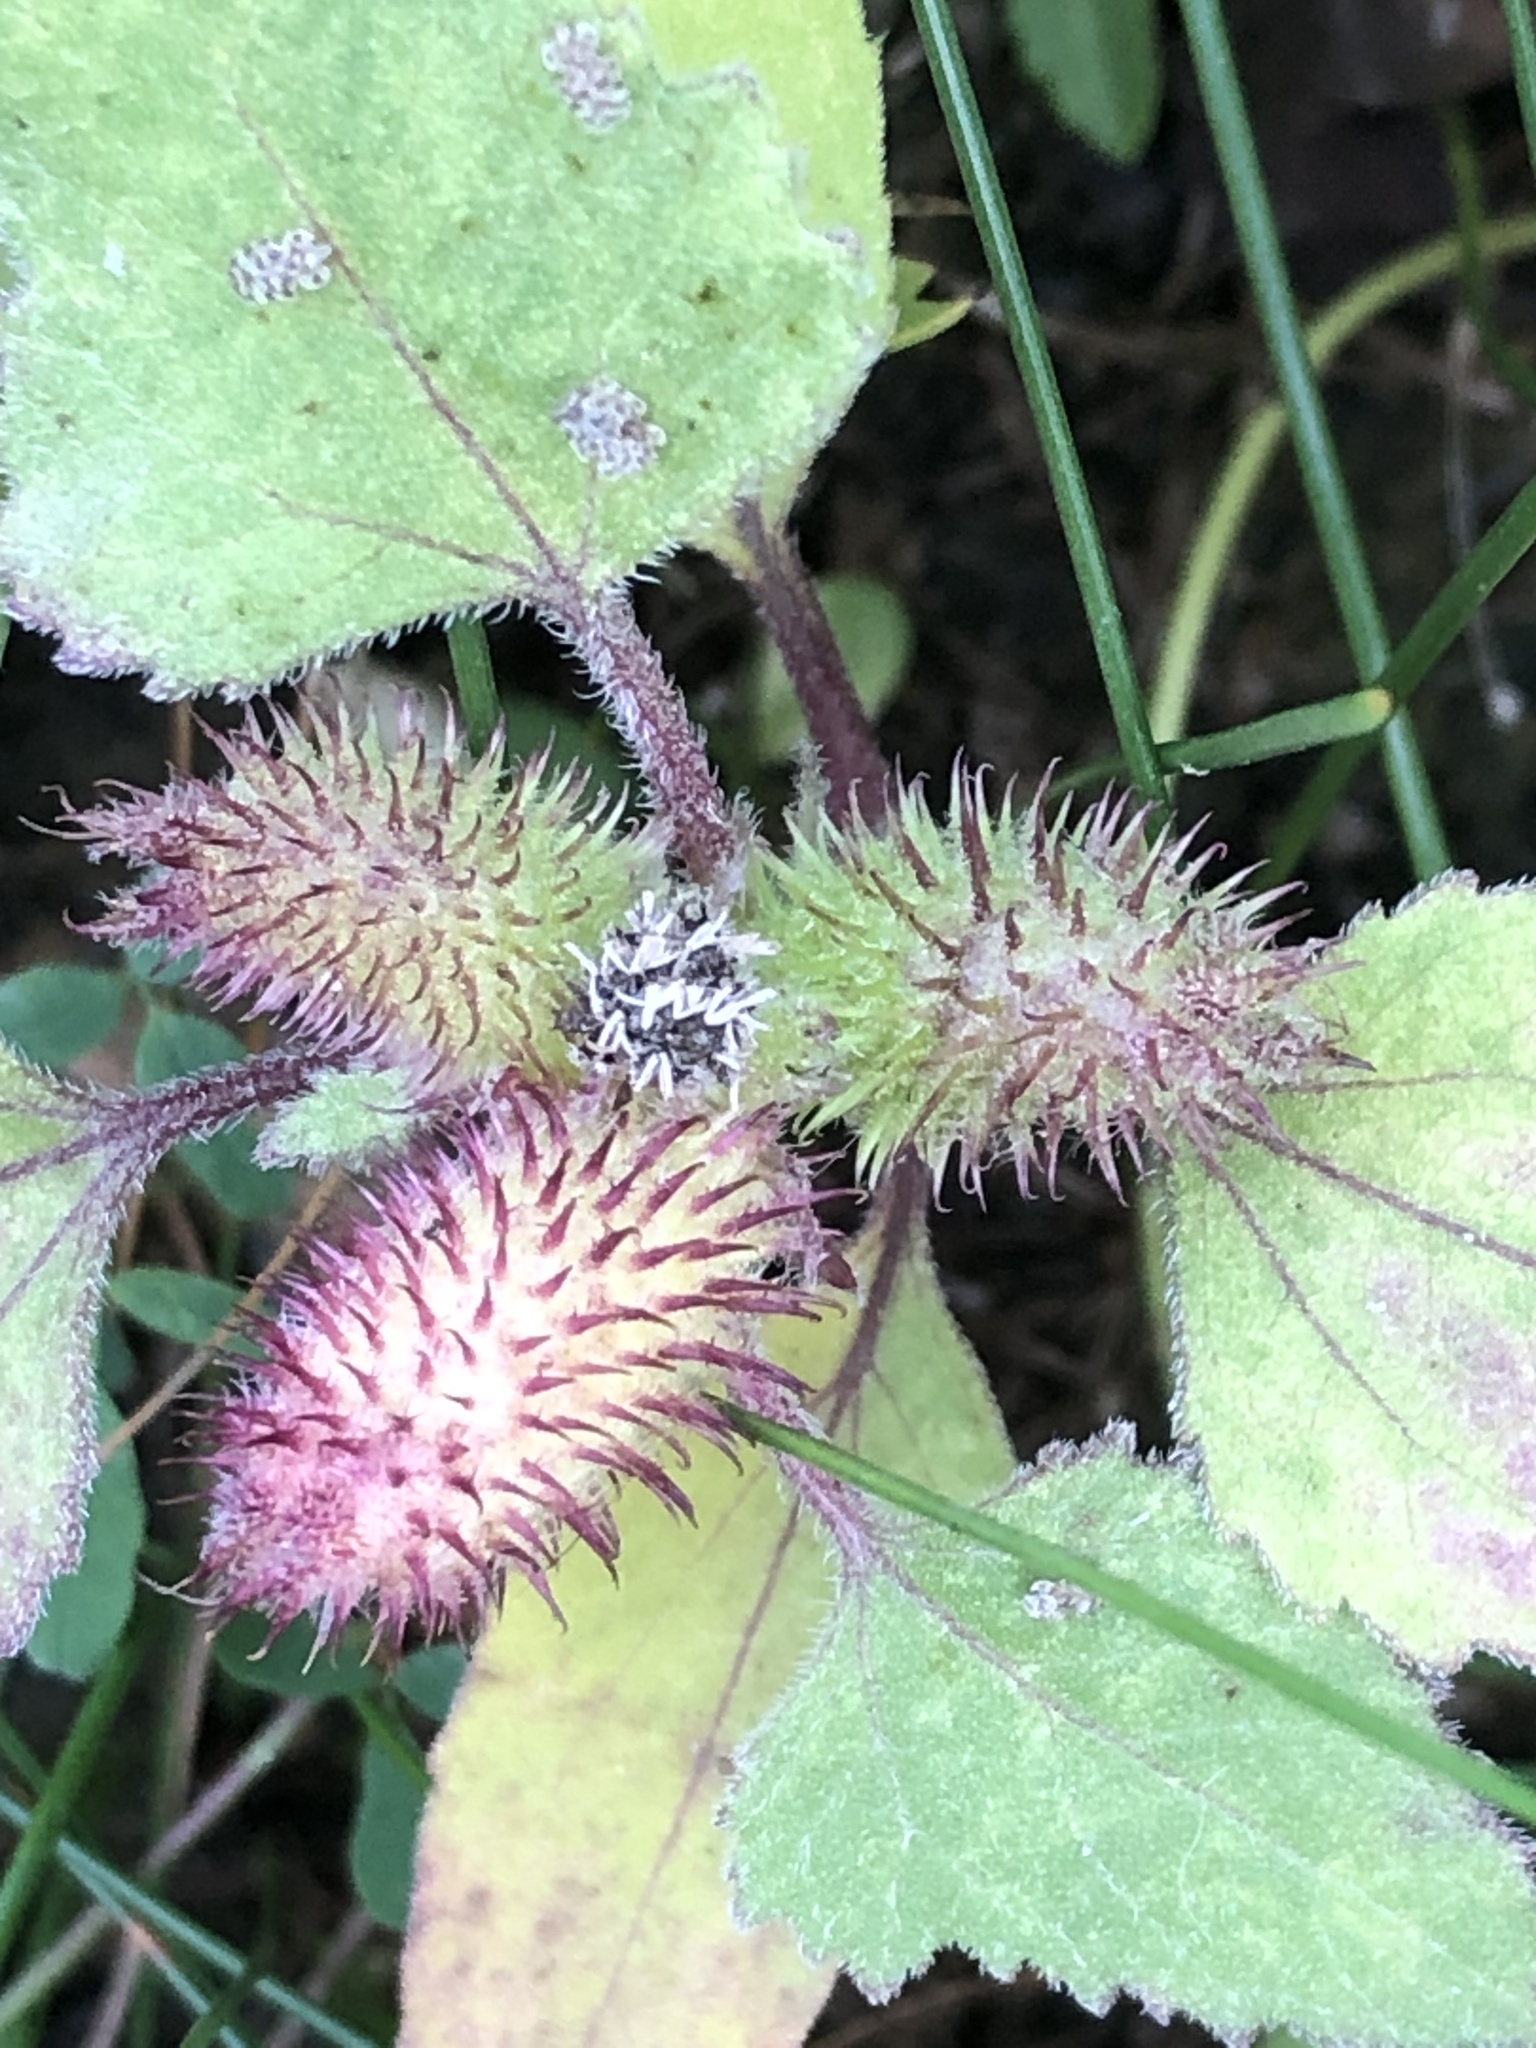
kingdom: Plantae
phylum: Tracheophyta
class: Magnoliopsida
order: Asterales
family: Asteraceae
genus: Xanthium
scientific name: Xanthium strumarium
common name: Rough cocklebur
